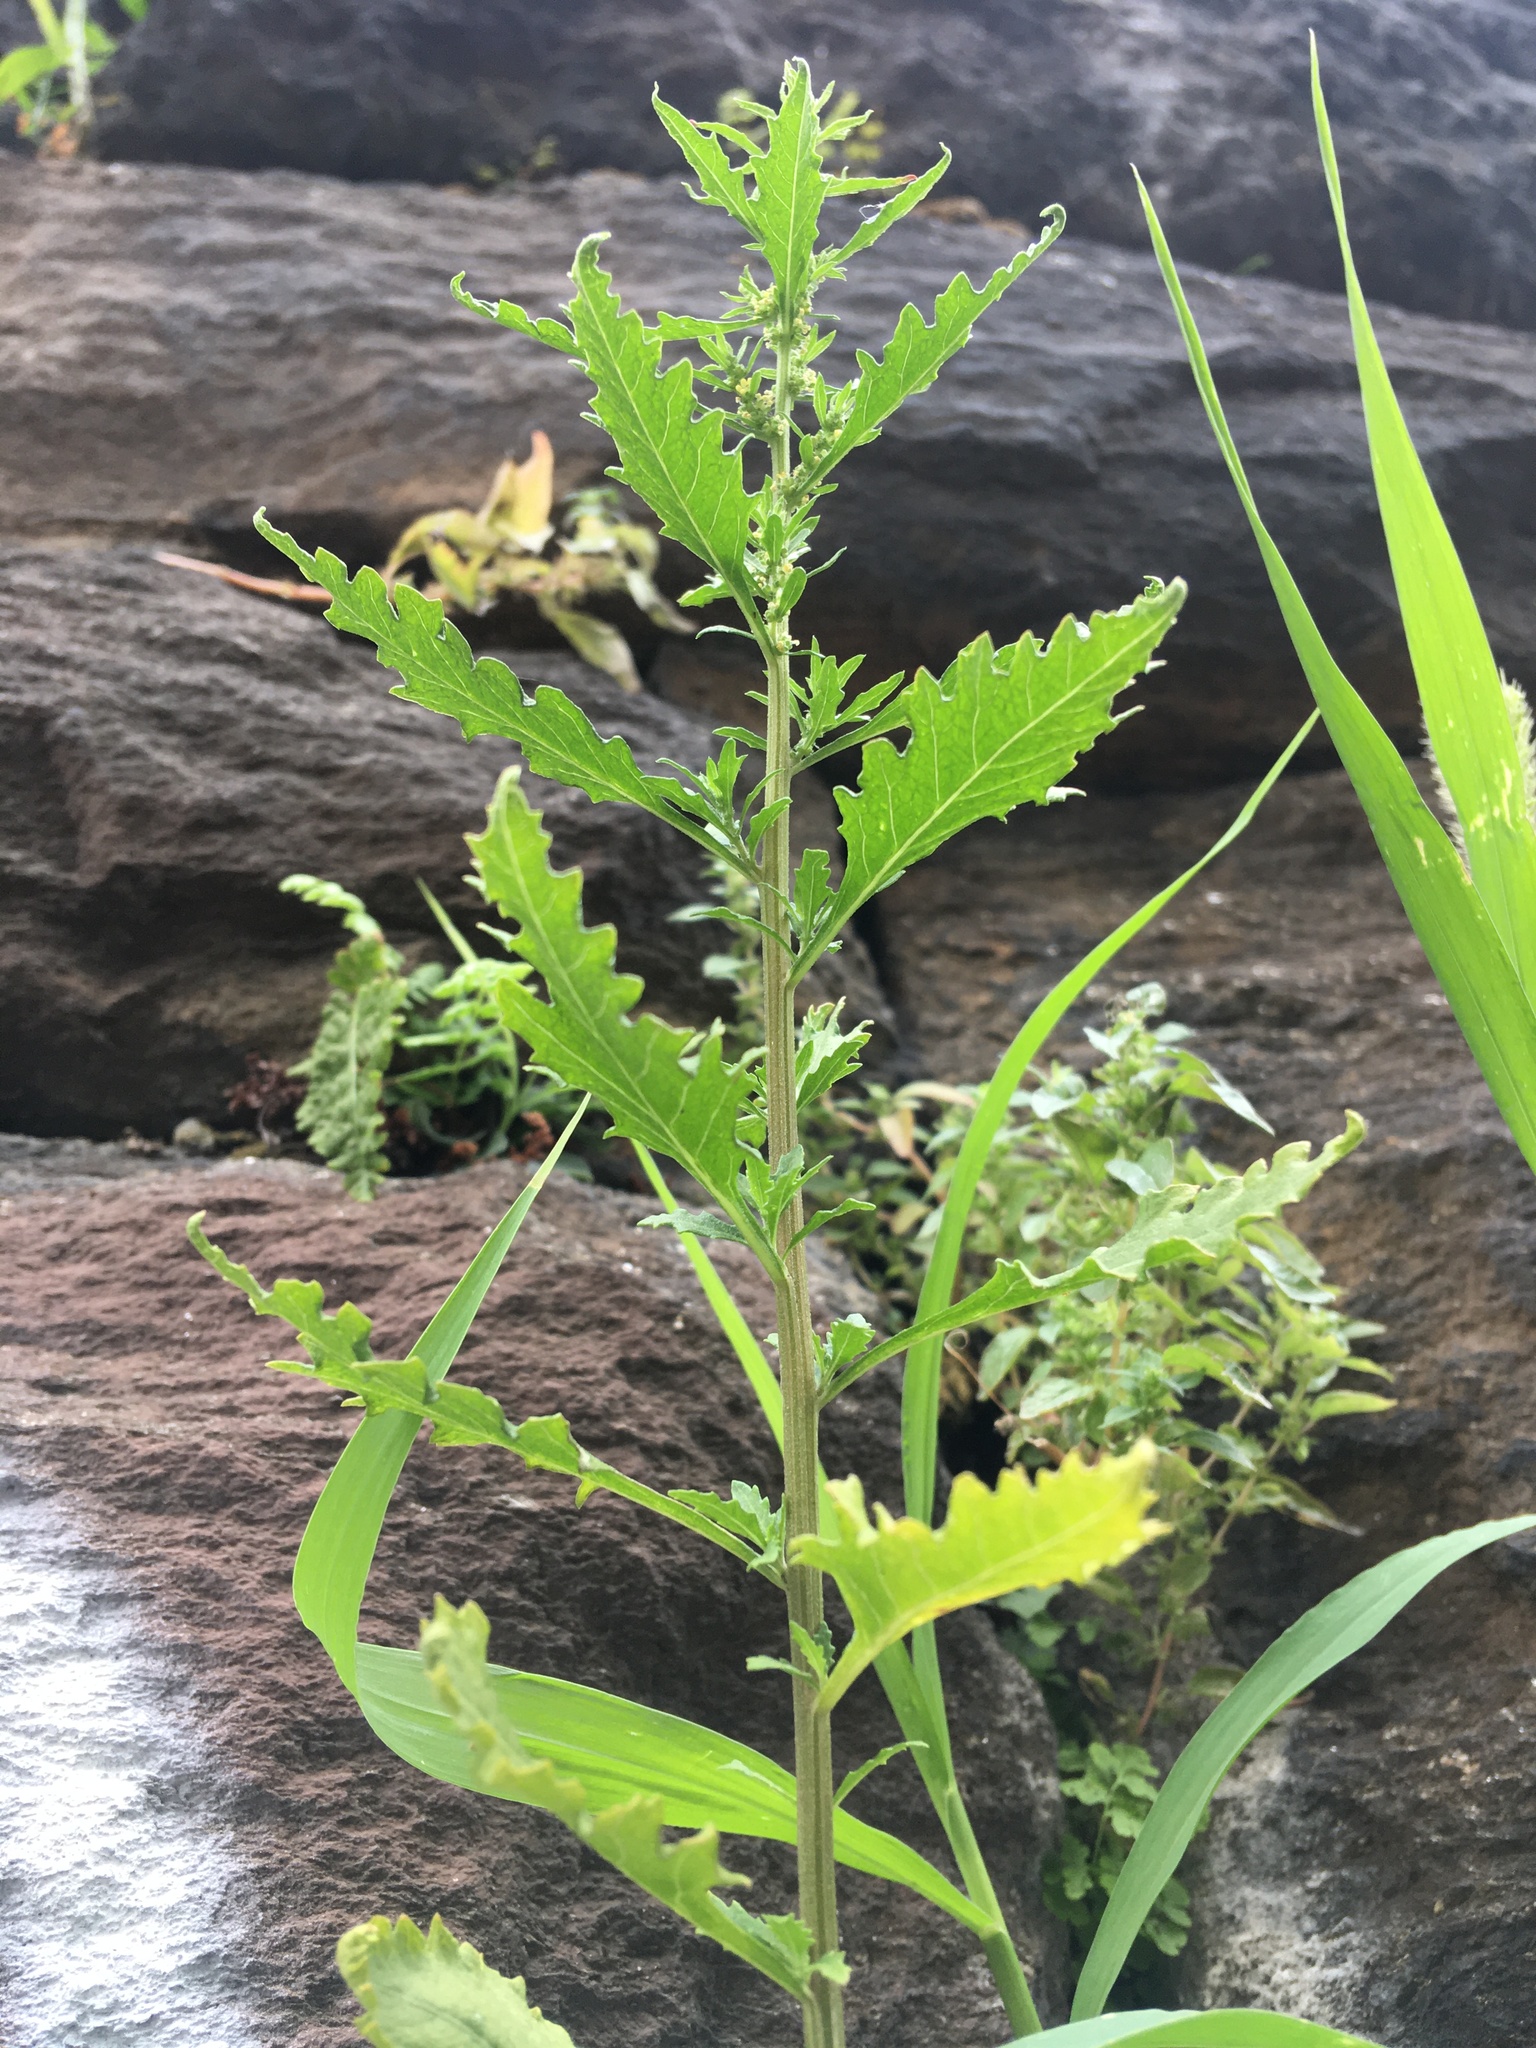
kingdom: Plantae
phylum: Tracheophyta
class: Magnoliopsida
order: Caryophyllales
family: Amaranthaceae
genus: Dysphania
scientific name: Dysphania ambrosioides
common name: Wormseed
